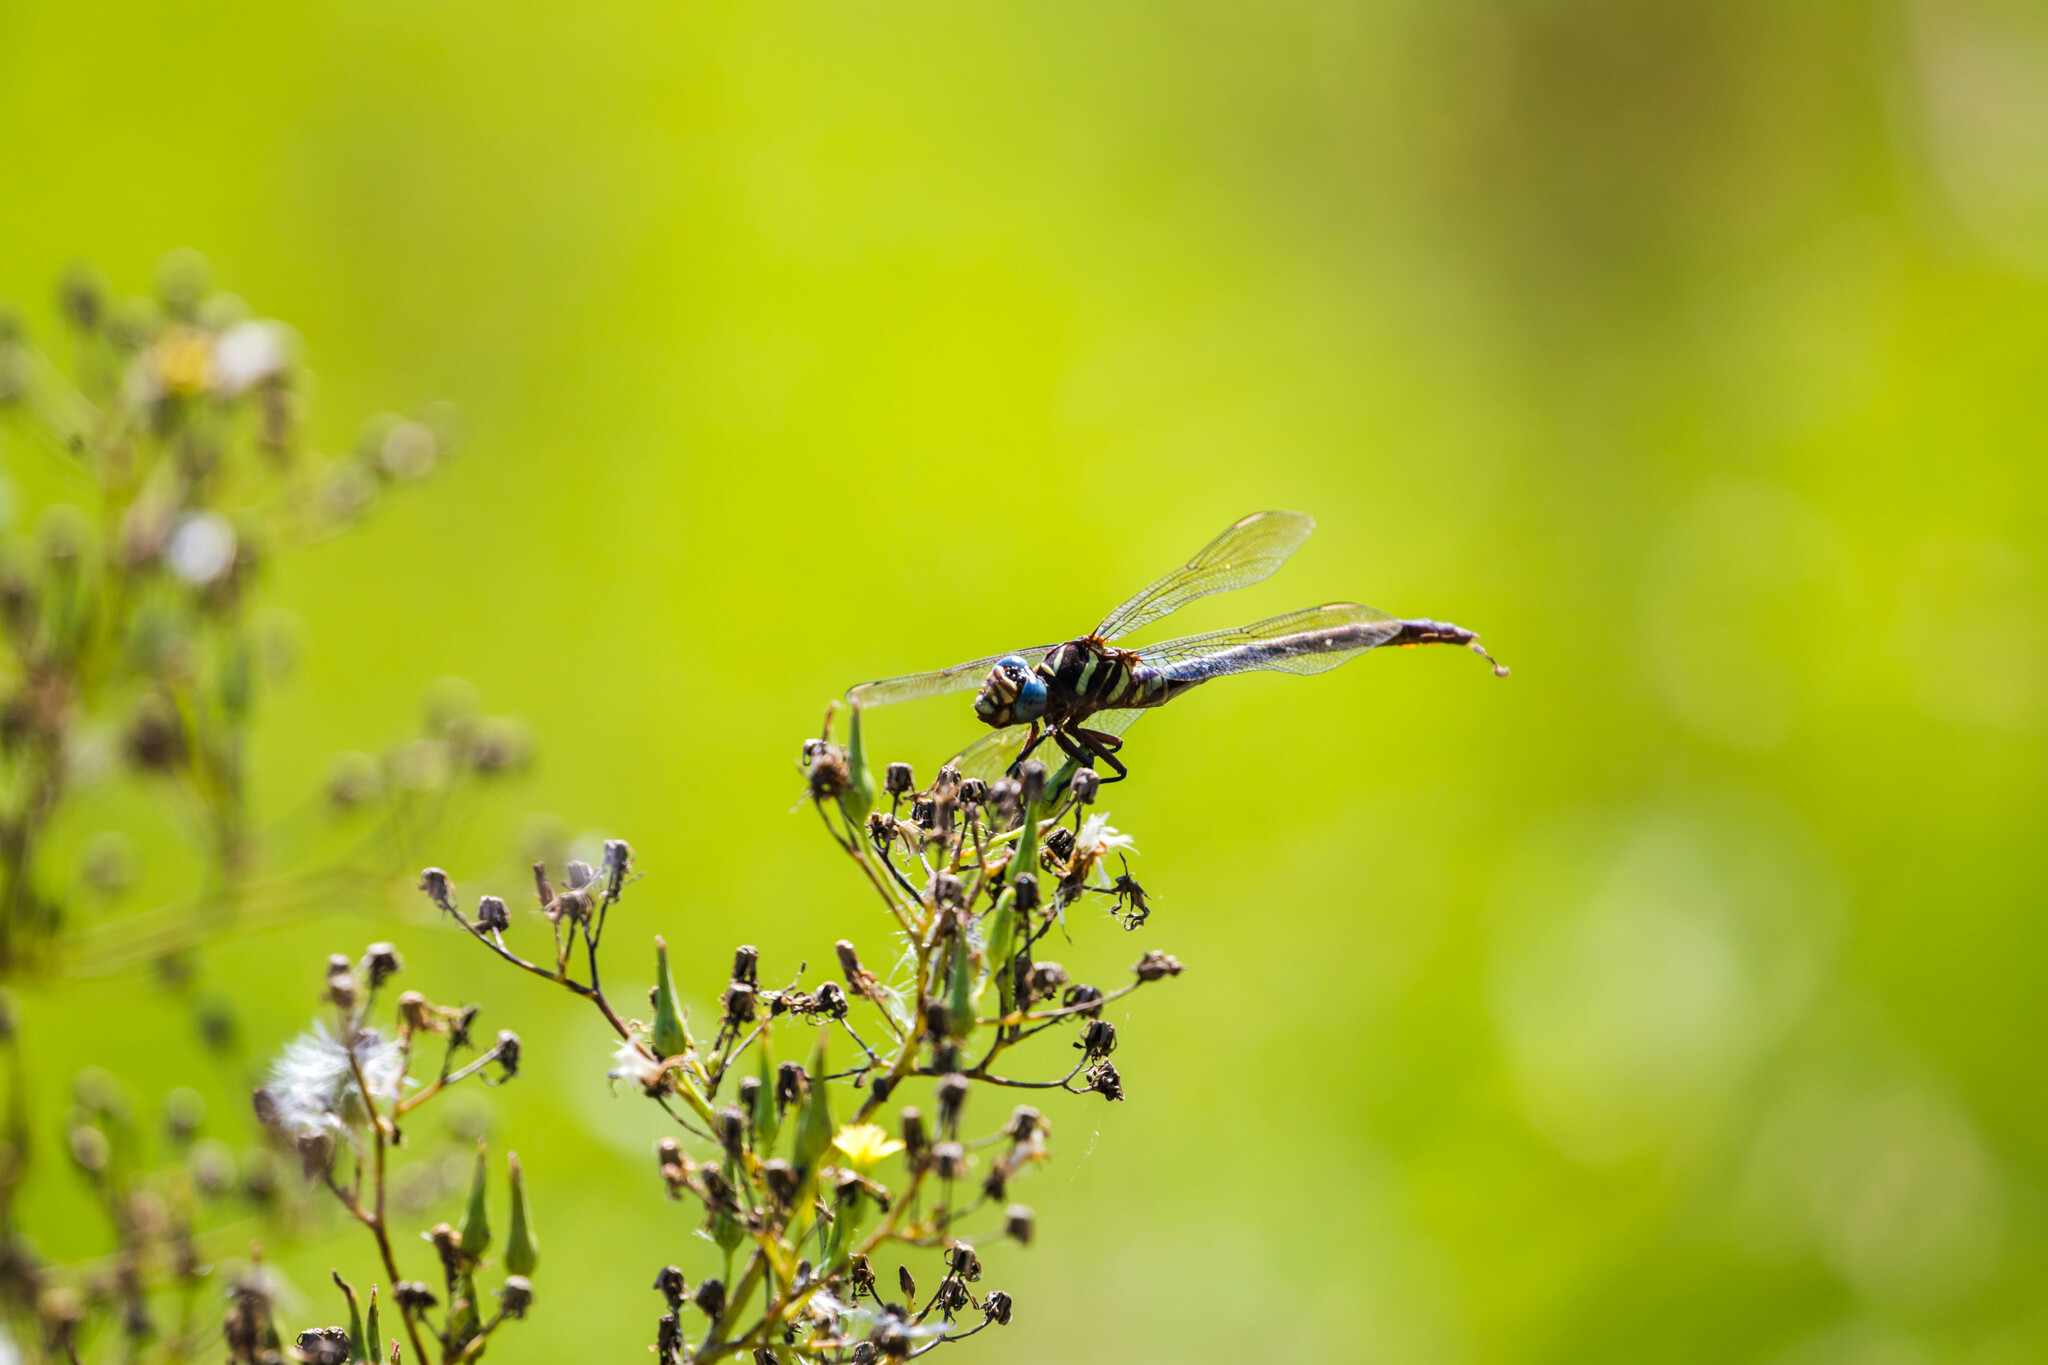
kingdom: Animalia
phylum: Arthropoda
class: Insecta
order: Odonata
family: Gomphidae
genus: Aphylla
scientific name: Aphylla williamsoni
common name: Two-striped forceptail
